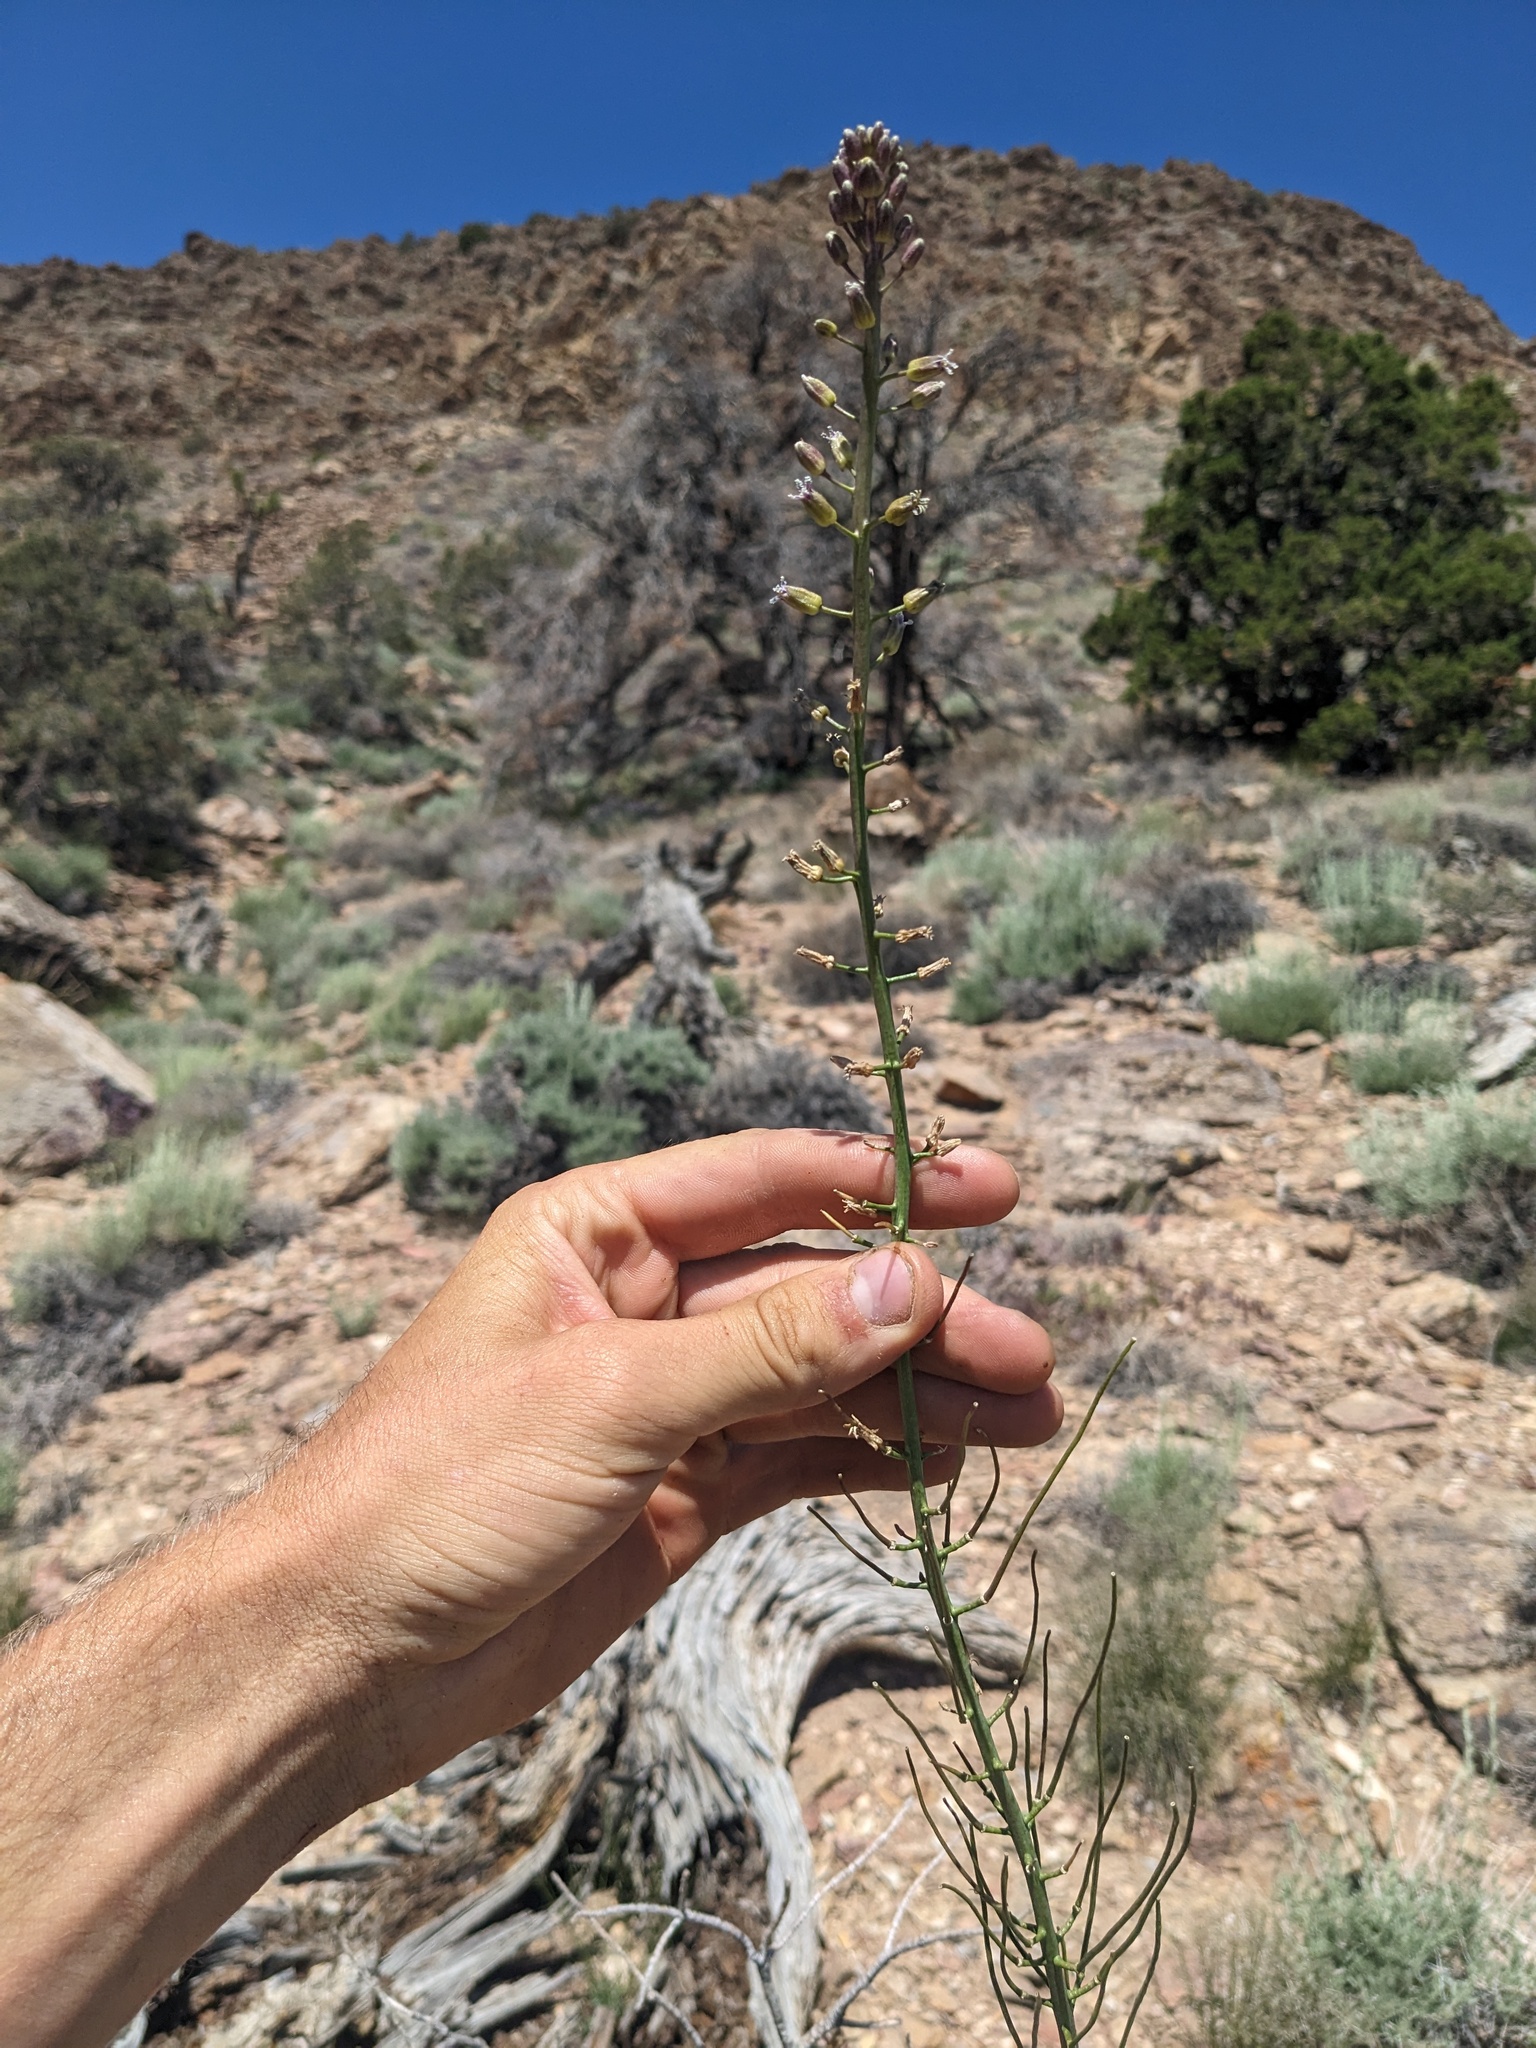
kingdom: Plantae
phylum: Tracheophyta
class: Magnoliopsida
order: Brassicales
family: Brassicaceae
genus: Streptanthus
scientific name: Streptanthus pilosus
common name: Chocolate drops
